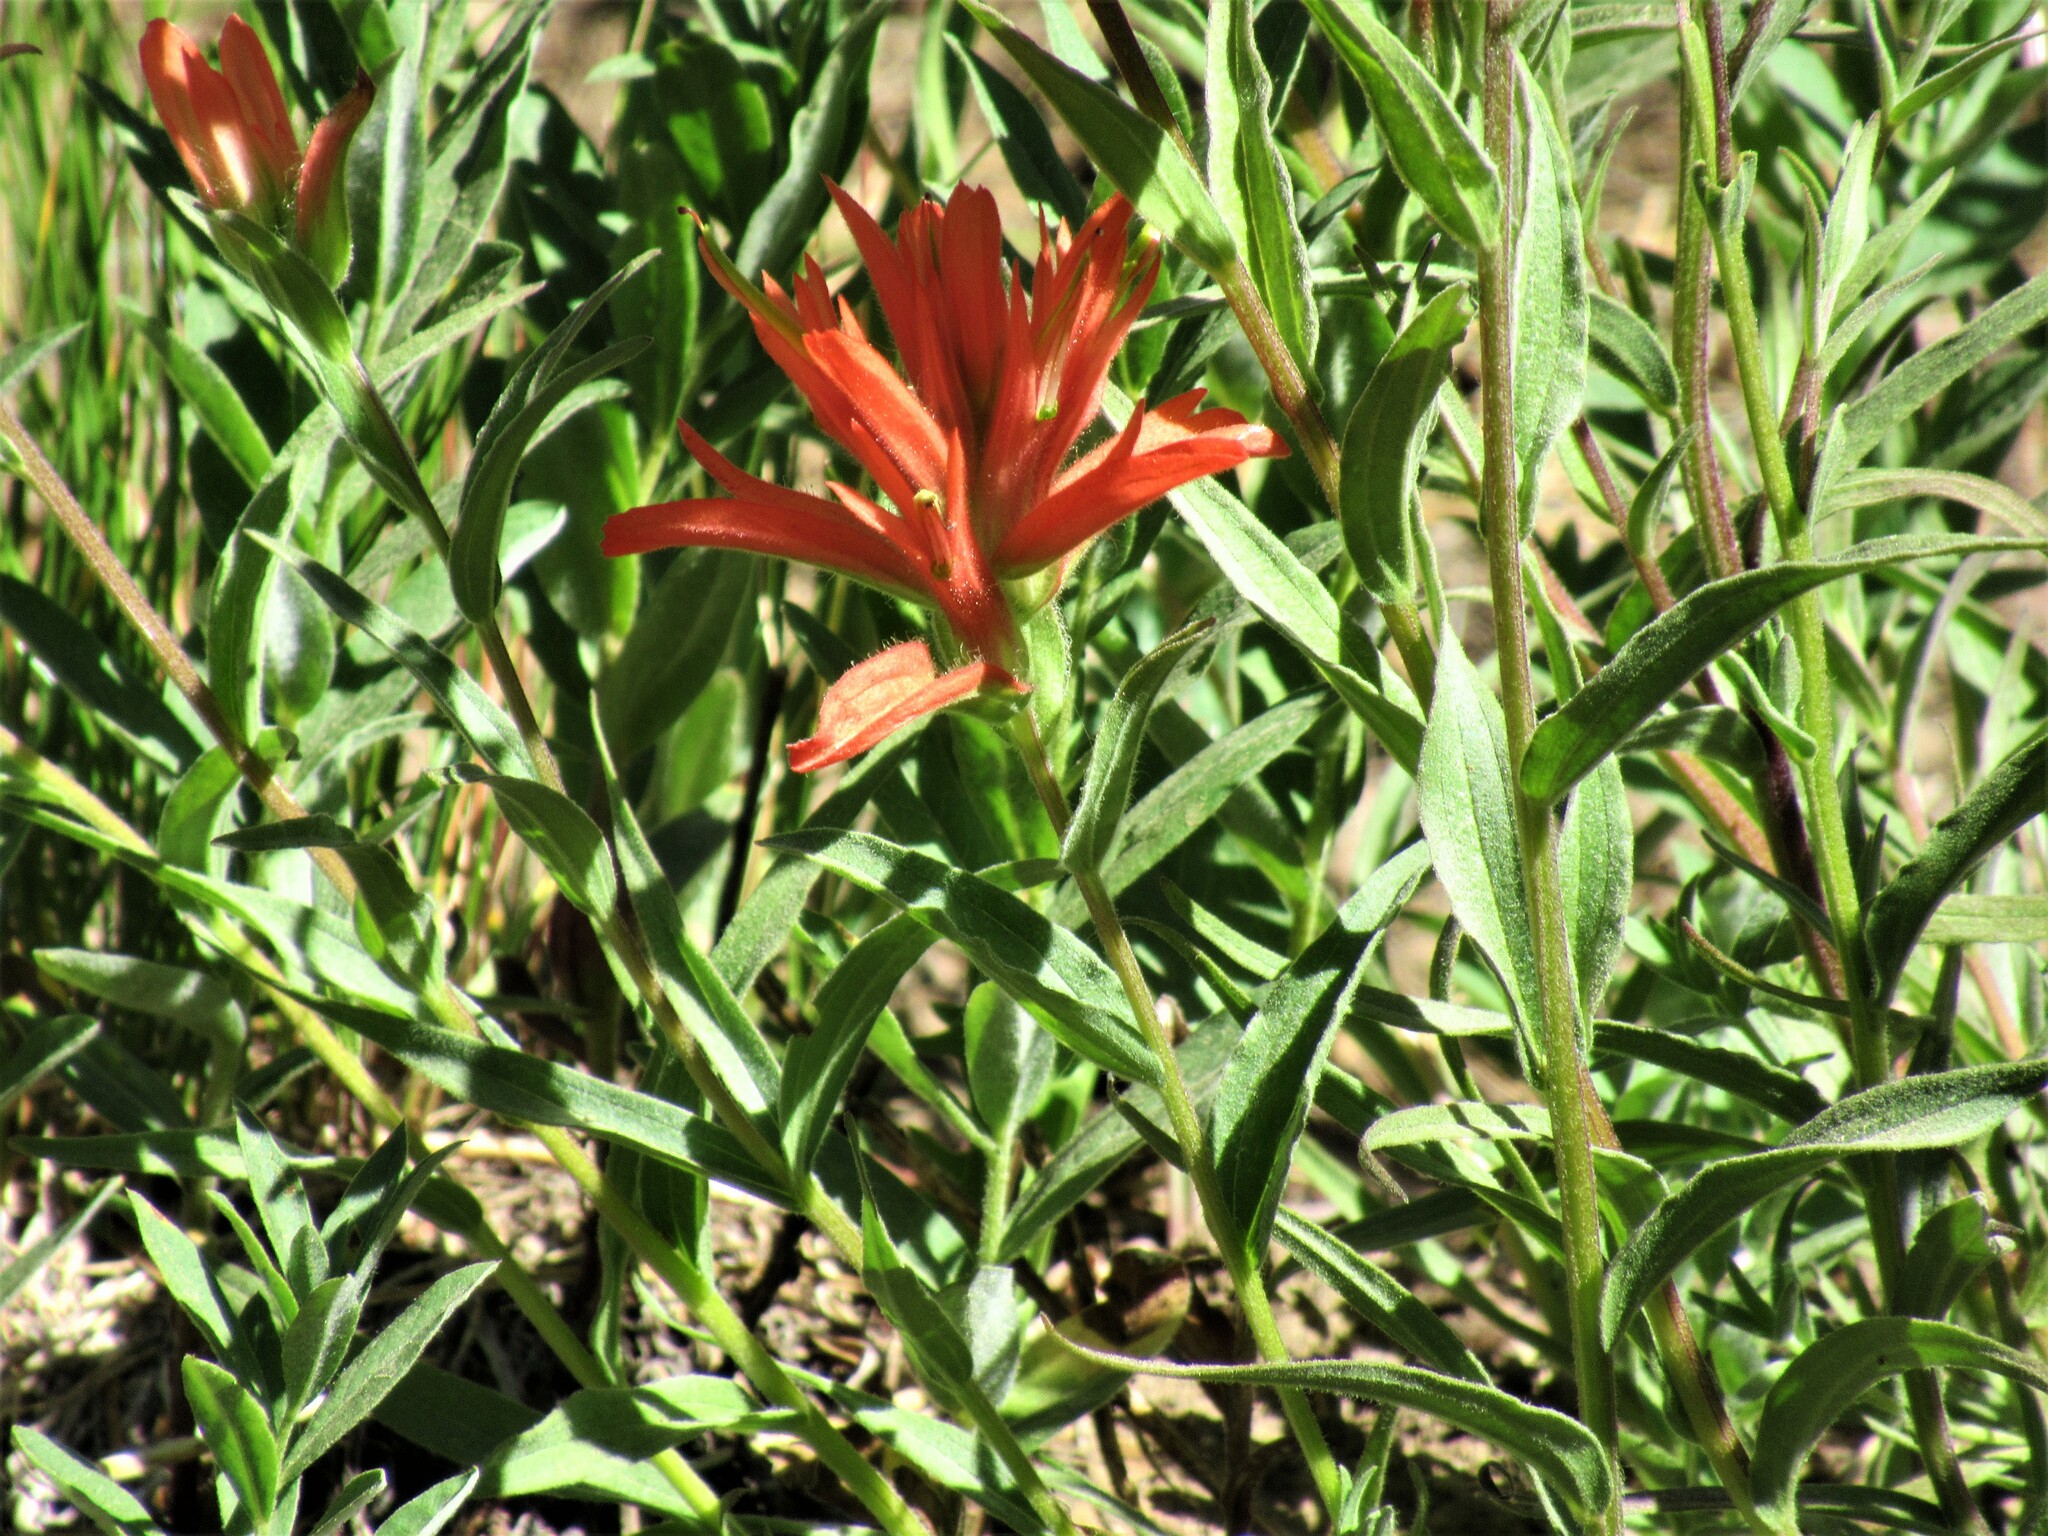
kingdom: Plantae
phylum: Tracheophyta
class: Magnoliopsida
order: Lamiales
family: Orobanchaceae
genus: Castilleja
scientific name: Castilleja miniata
